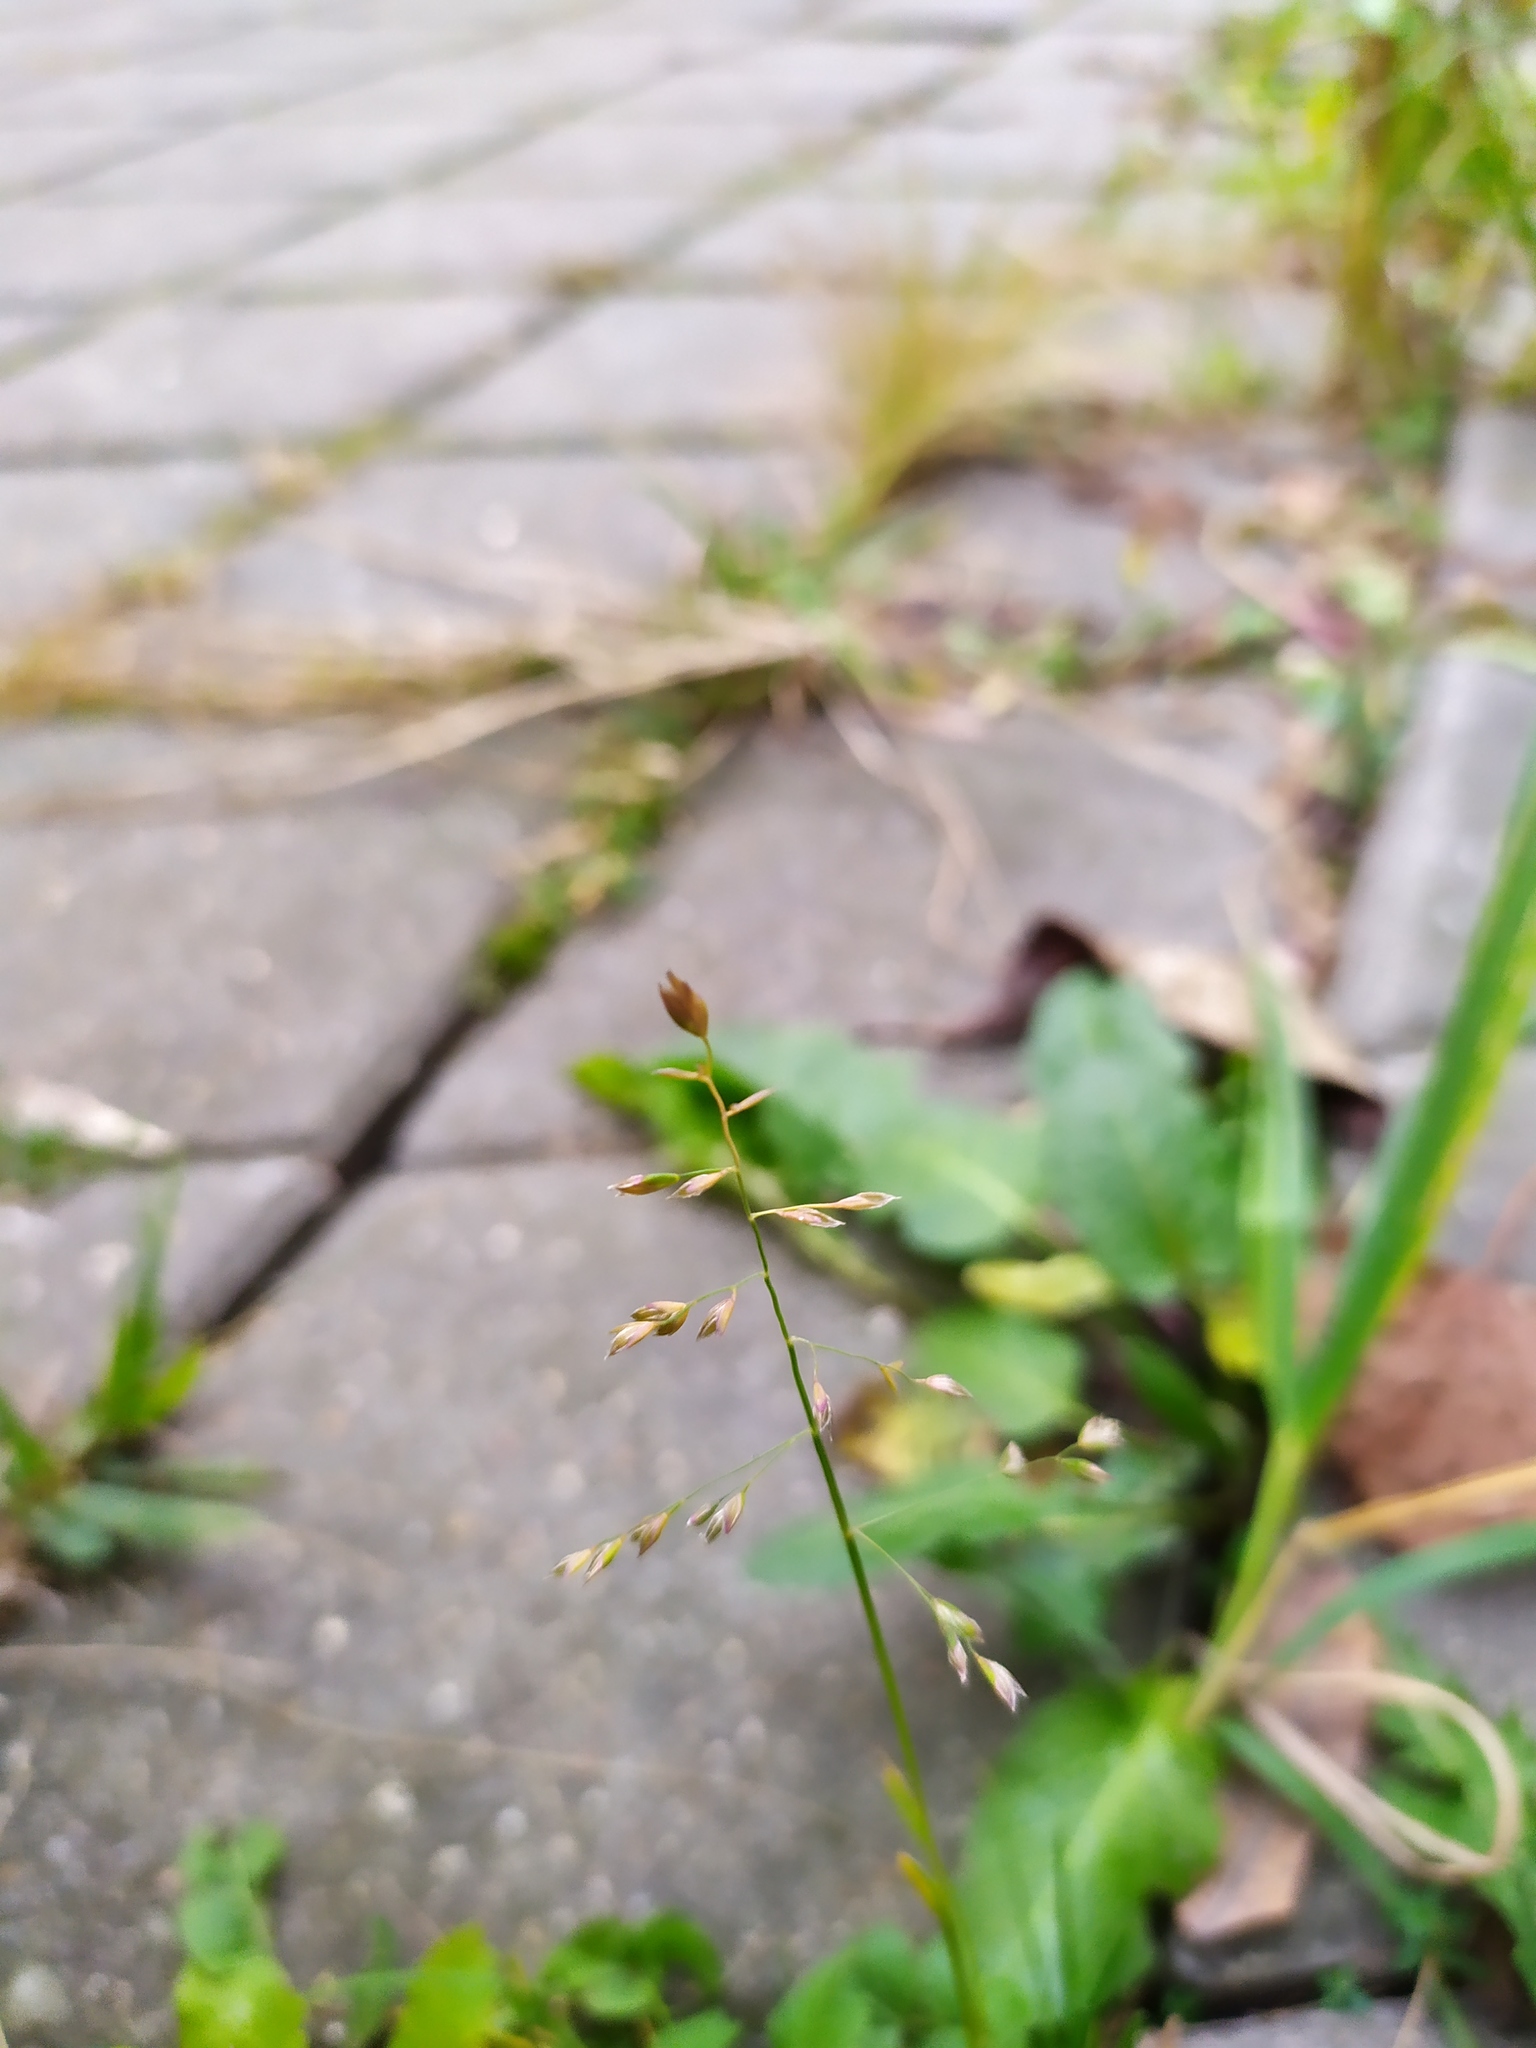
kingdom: Plantae
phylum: Tracheophyta
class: Liliopsida
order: Poales
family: Poaceae
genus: Poa
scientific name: Poa annua
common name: Annual bluegrass
